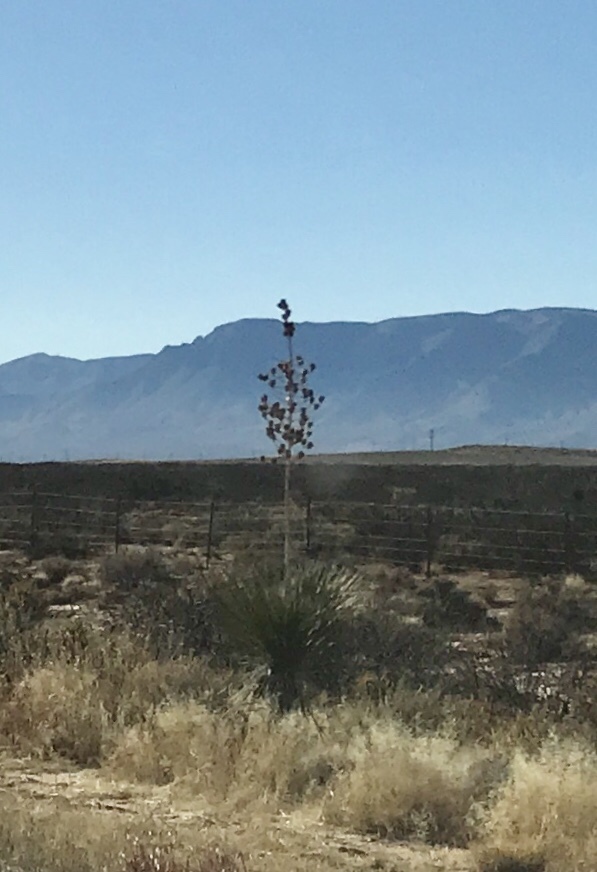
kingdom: Plantae
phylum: Tracheophyta
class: Liliopsida
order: Asparagales
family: Asparagaceae
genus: Yucca
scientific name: Yucca elata
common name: Palmella
